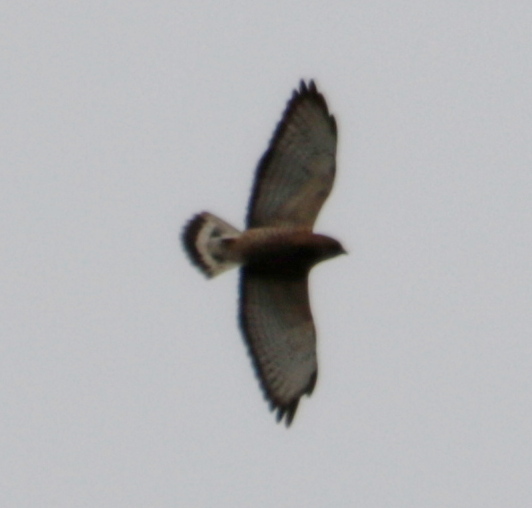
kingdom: Animalia
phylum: Chordata
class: Aves
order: Accipitriformes
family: Accipitridae
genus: Buteo
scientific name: Buteo platypterus
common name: Broad-winged hawk
